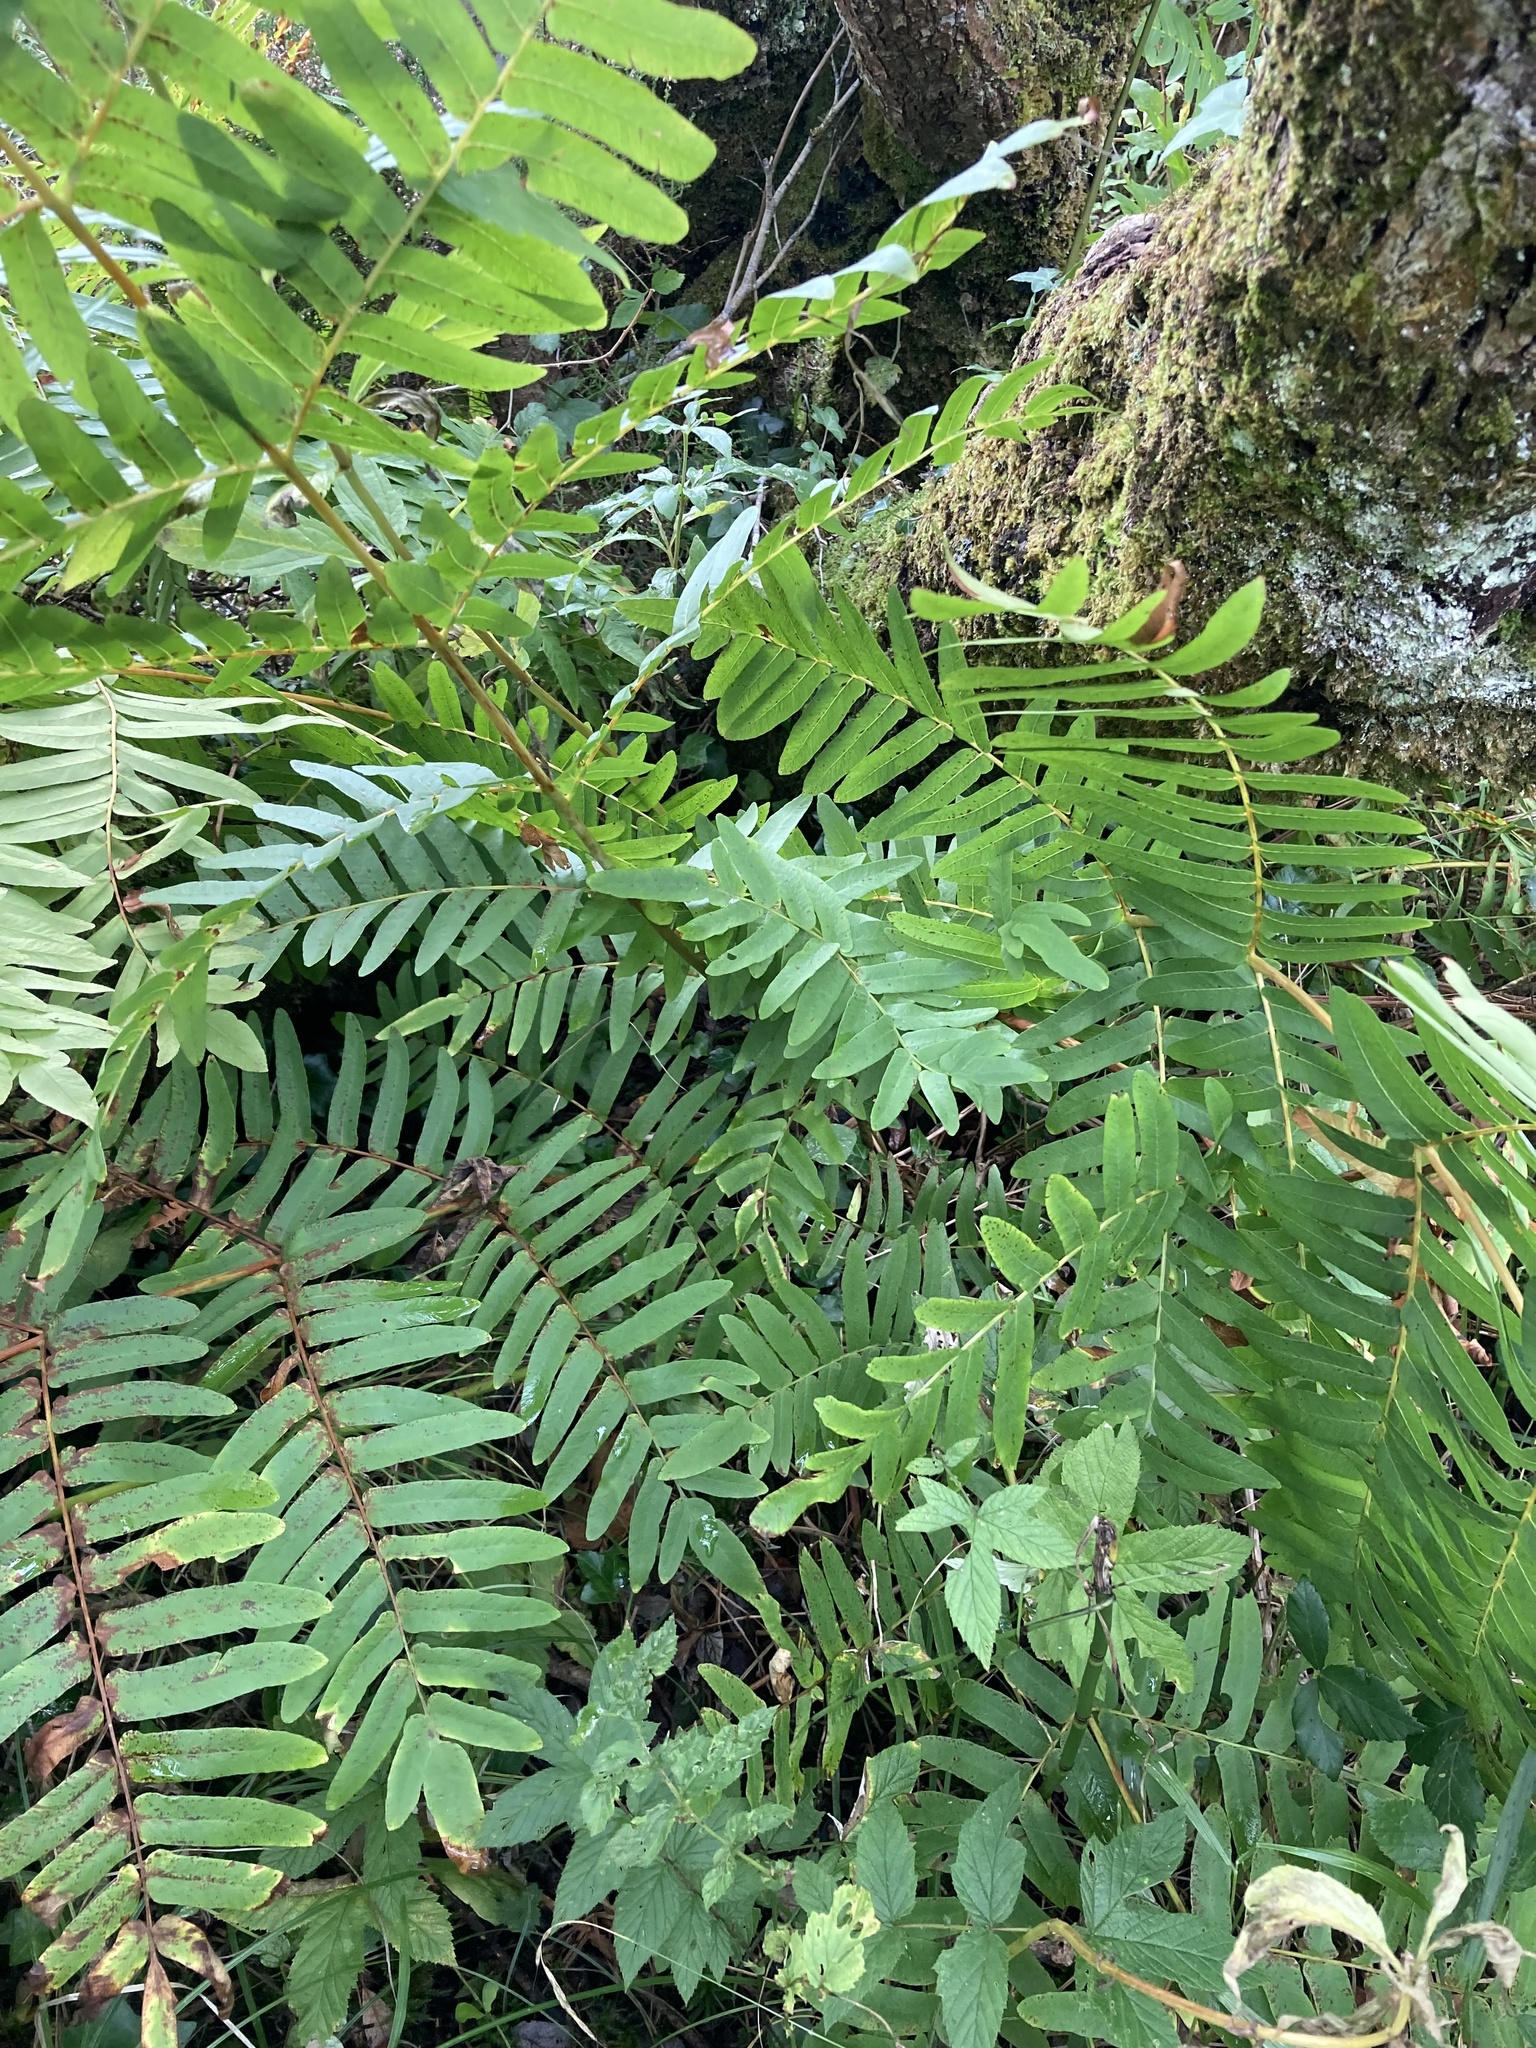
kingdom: Plantae
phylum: Tracheophyta
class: Polypodiopsida
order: Osmundales
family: Osmundaceae
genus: Osmunda
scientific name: Osmunda regalis
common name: Royal fern
